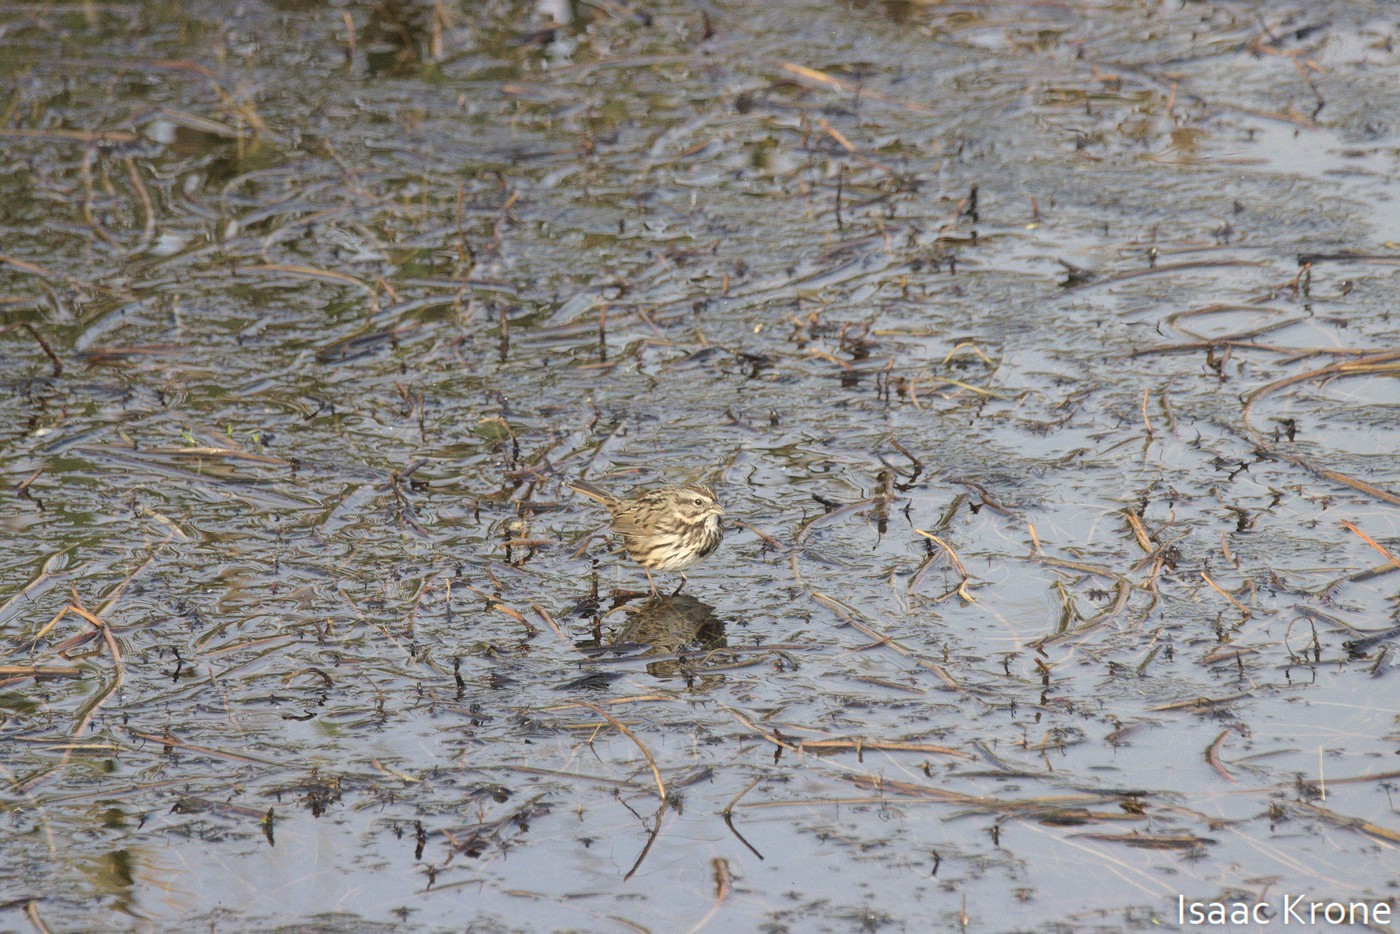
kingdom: Animalia
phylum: Chordata
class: Aves
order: Passeriformes
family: Passerellidae
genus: Melospiza
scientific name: Melospiza melodia
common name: Song sparrow
